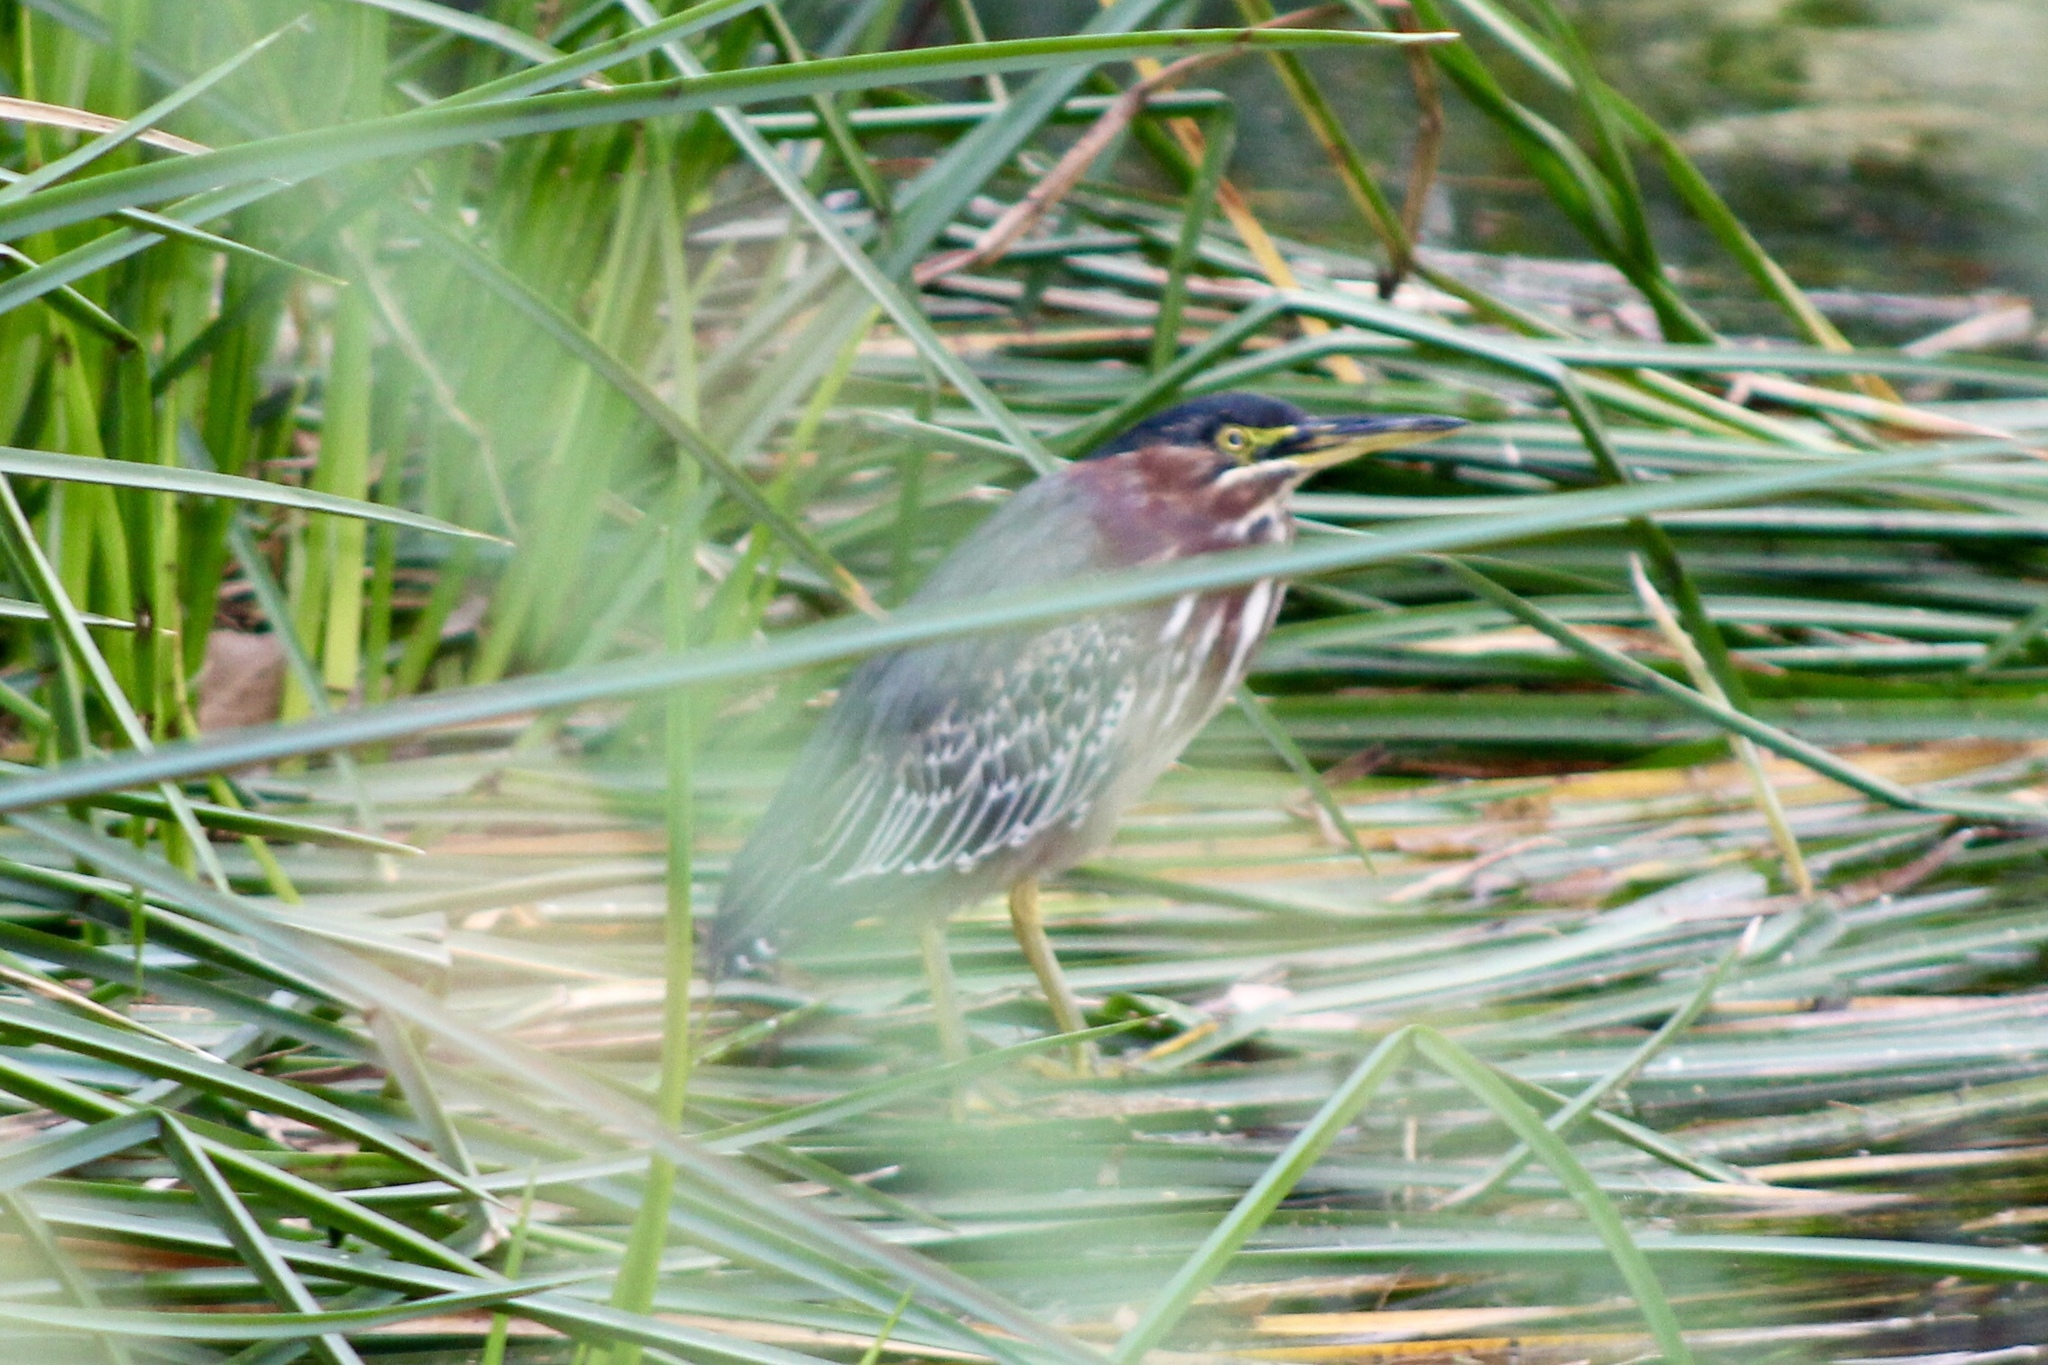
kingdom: Animalia
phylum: Chordata
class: Aves
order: Pelecaniformes
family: Ardeidae
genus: Butorides
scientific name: Butorides virescens
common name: Green heron
